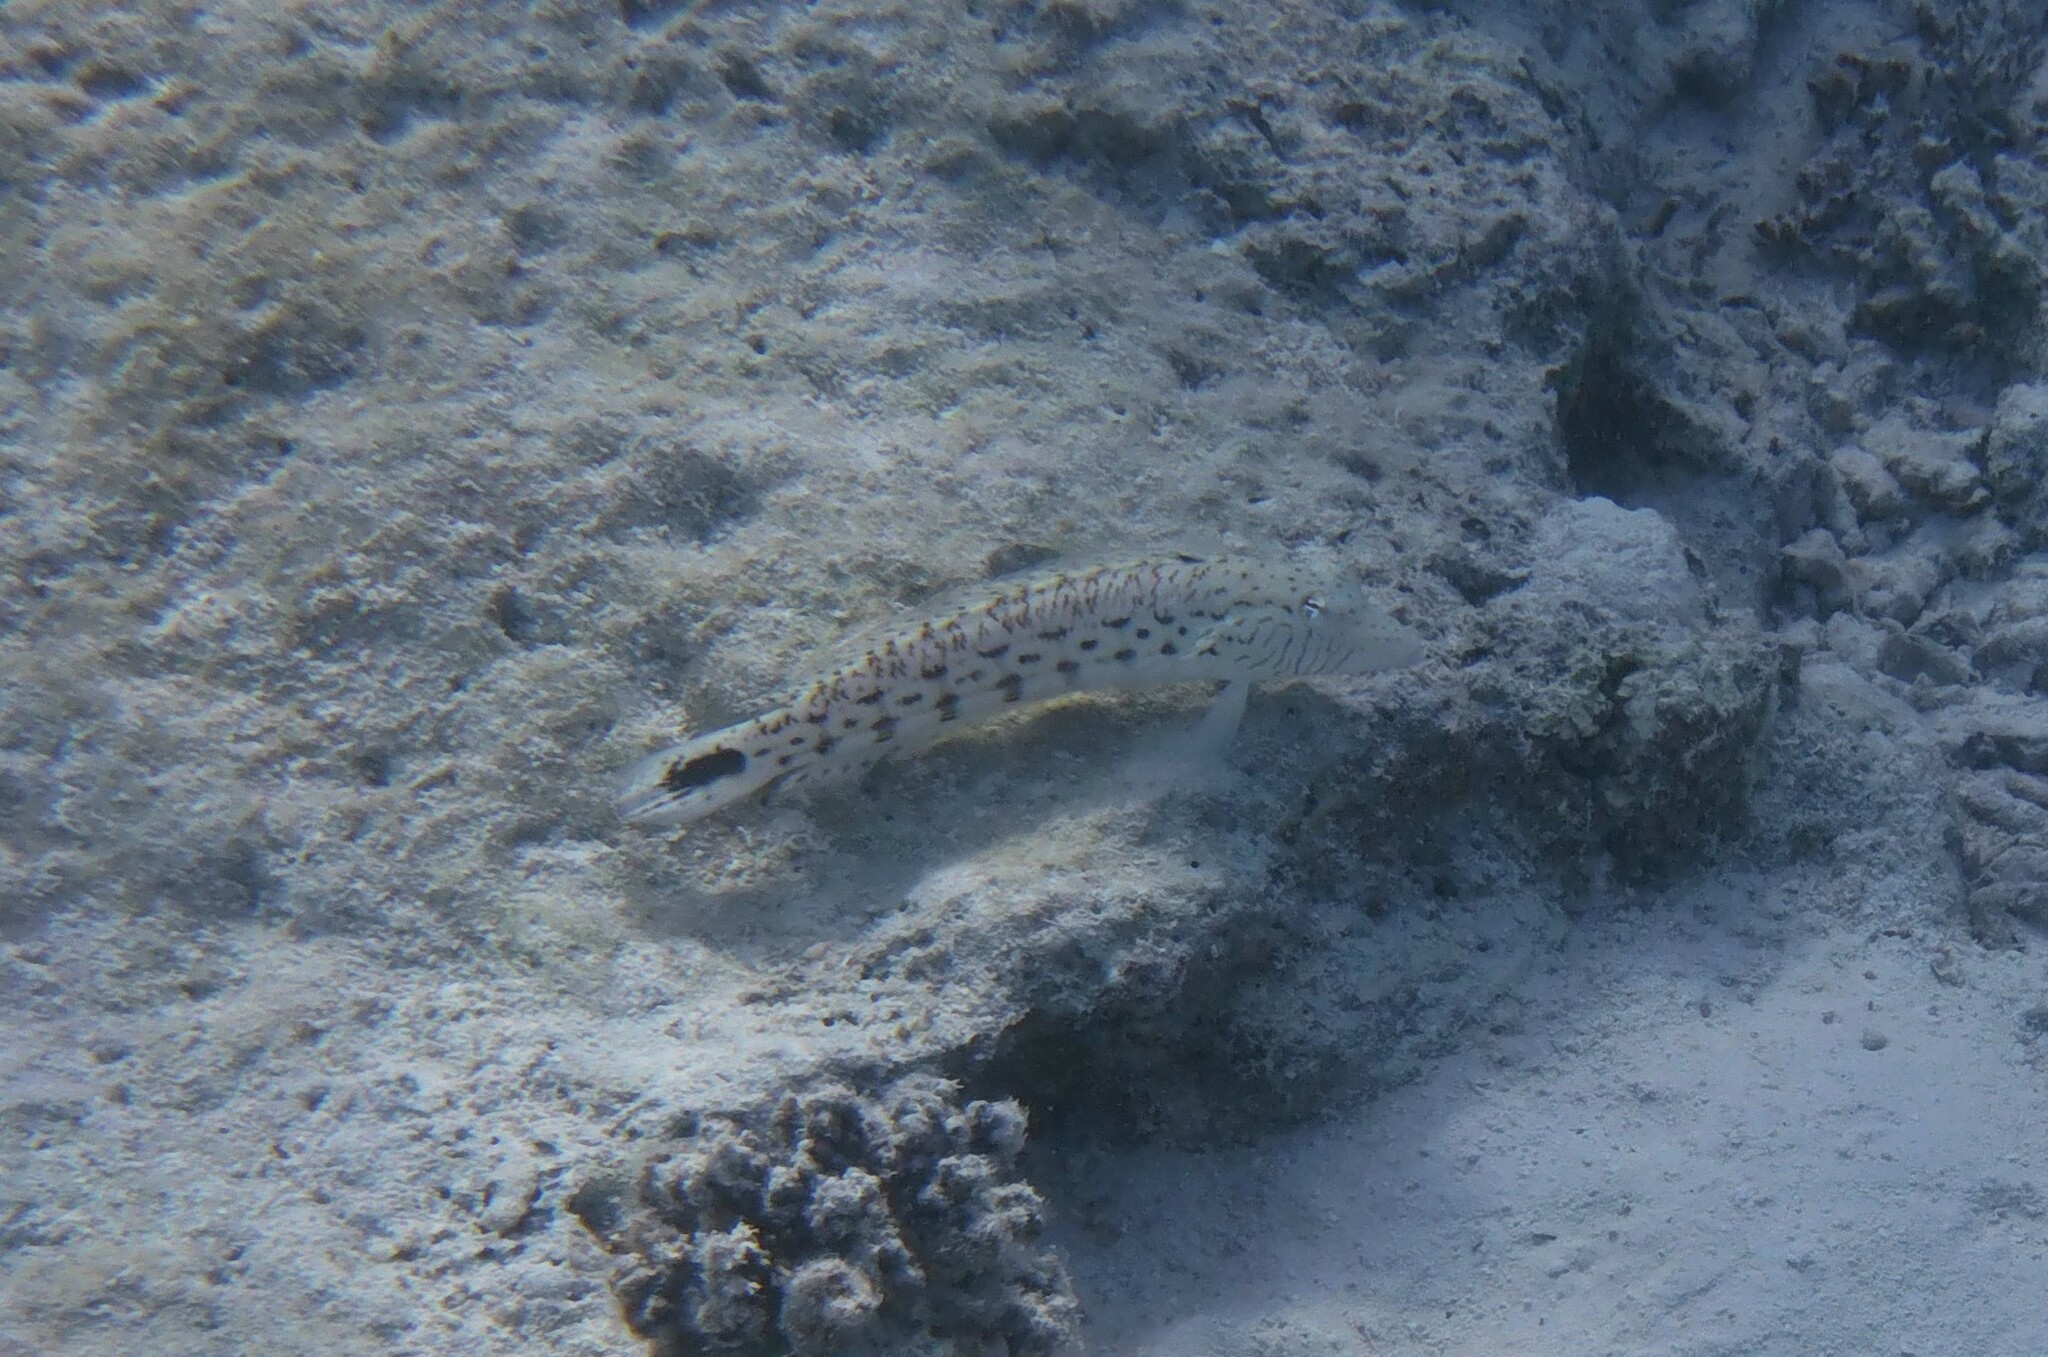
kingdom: Animalia
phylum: Chordata
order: Perciformes
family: Pinguipedidae
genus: Parapercis
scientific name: Parapercis hexophtalma
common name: Speckled sandperch
